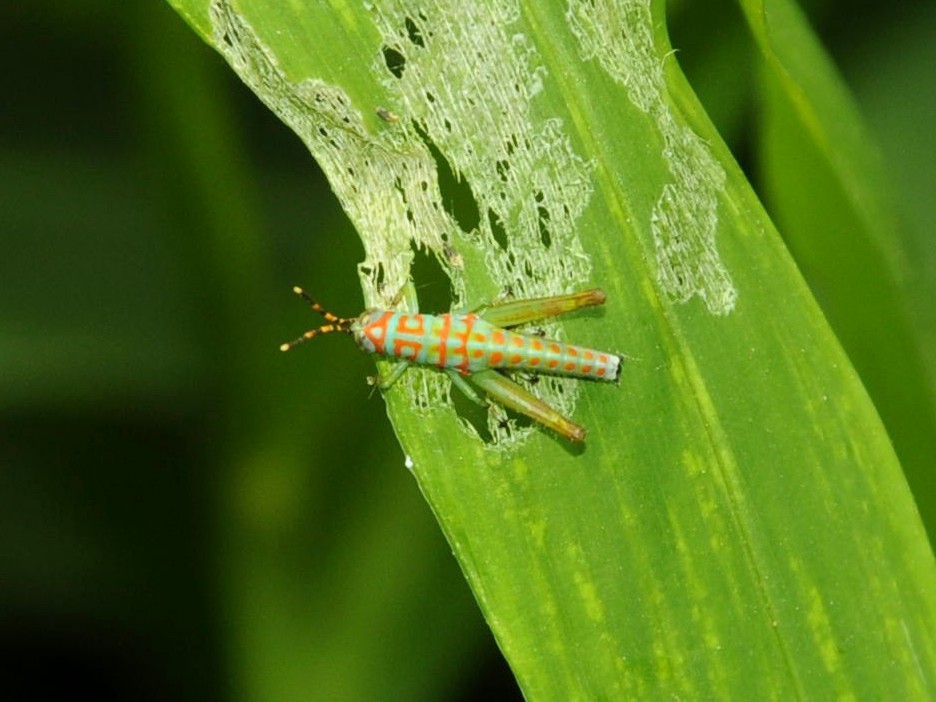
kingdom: Animalia
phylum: Arthropoda
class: Insecta
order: Orthoptera
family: Acrididae
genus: Pirithoicus
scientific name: Pirithoicus ophthalmicus
